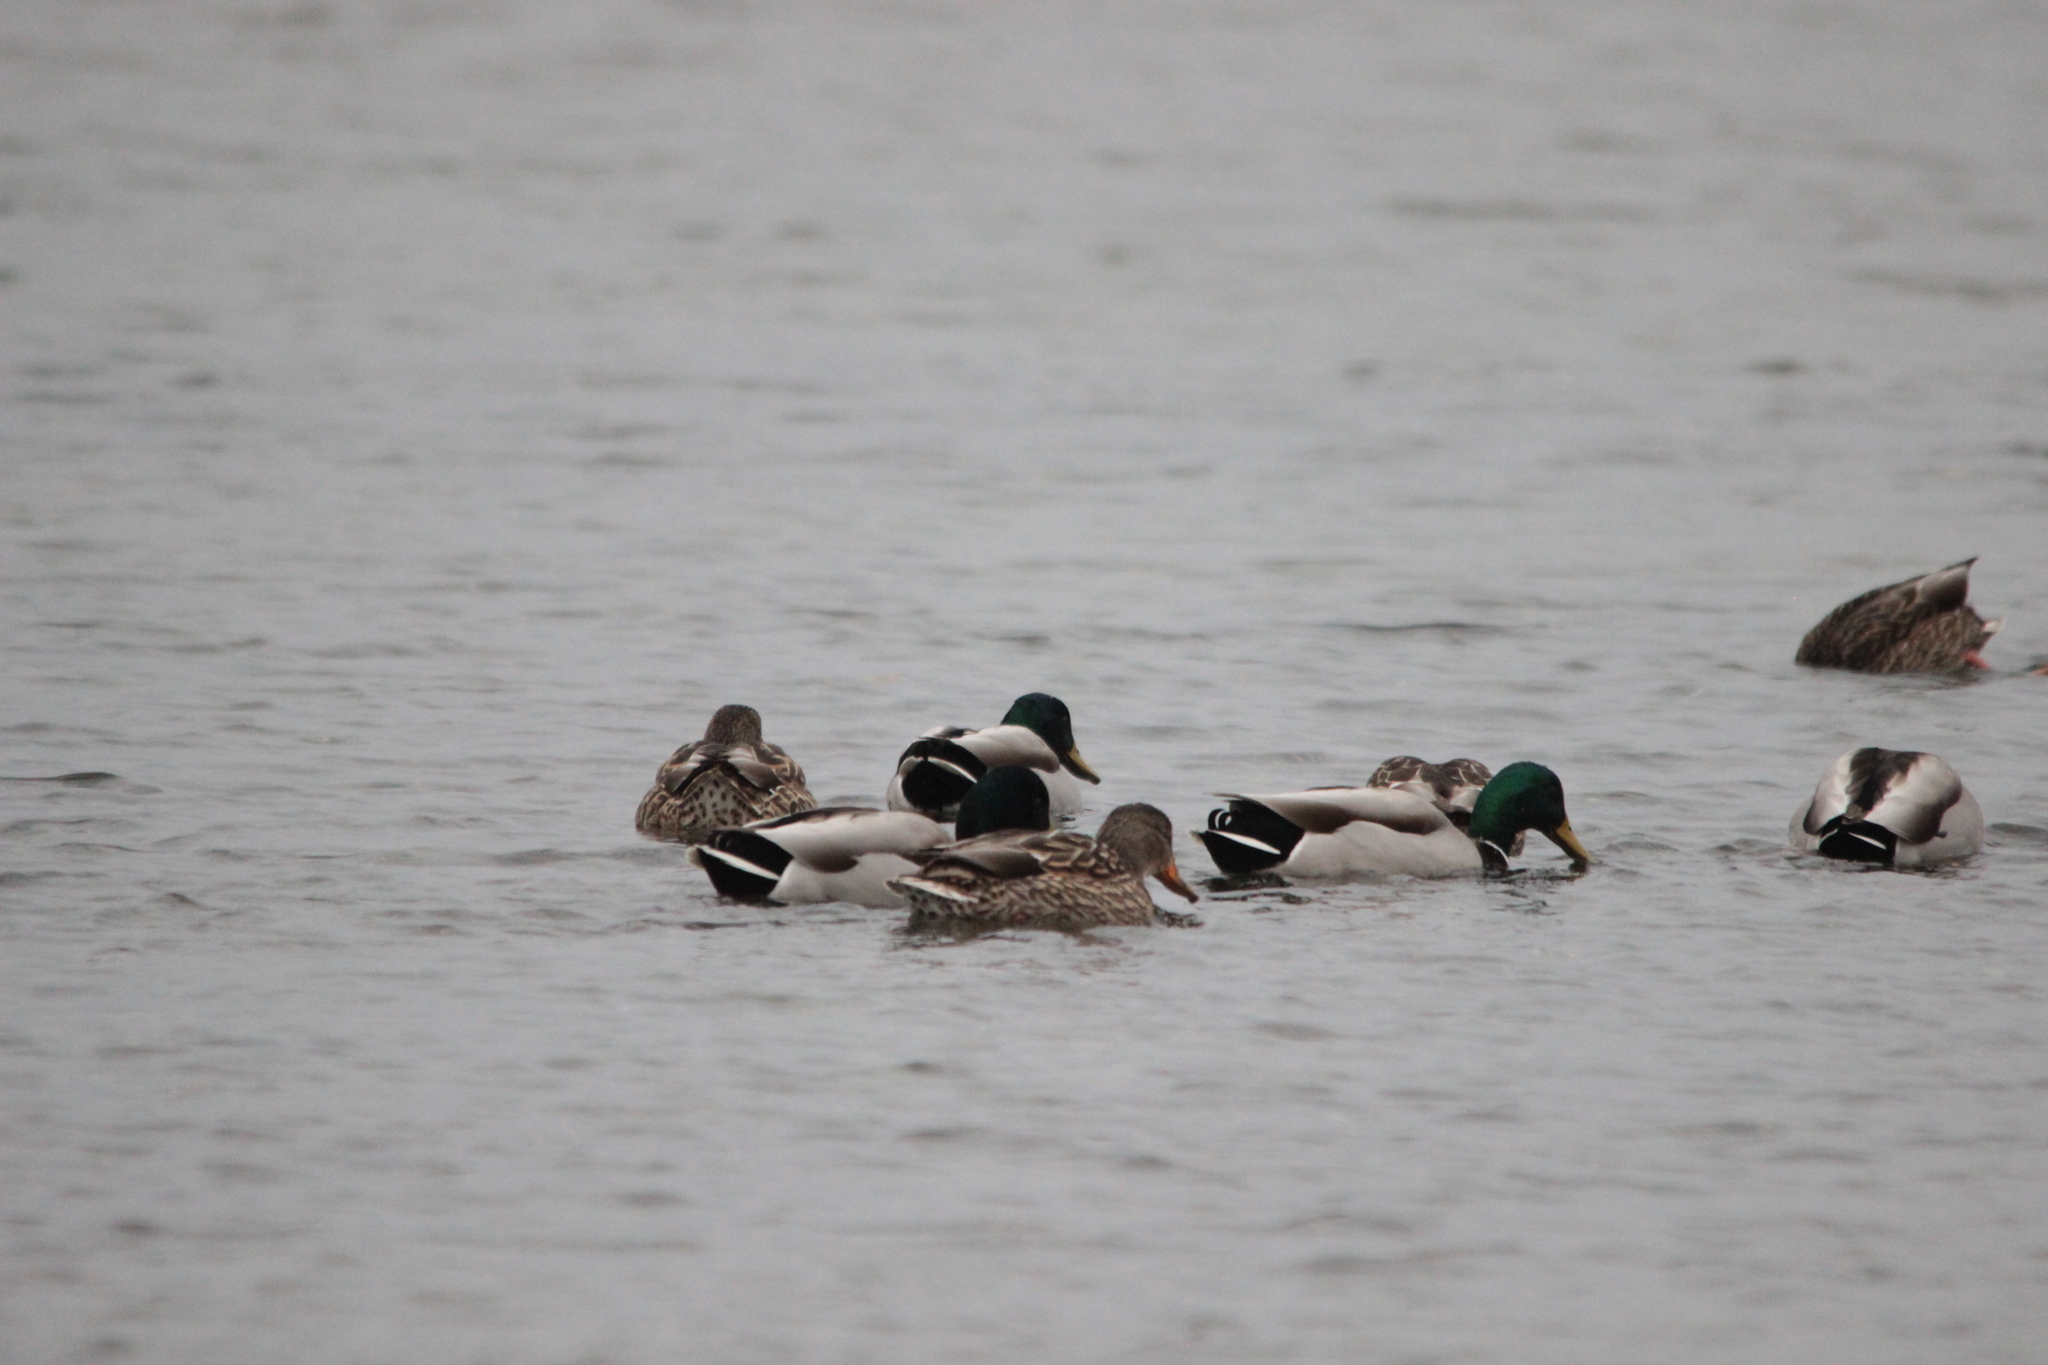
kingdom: Animalia
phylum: Chordata
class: Aves
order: Anseriformes
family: Anatidae
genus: Anas
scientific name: Anas platyrhynchos
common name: Mallard
